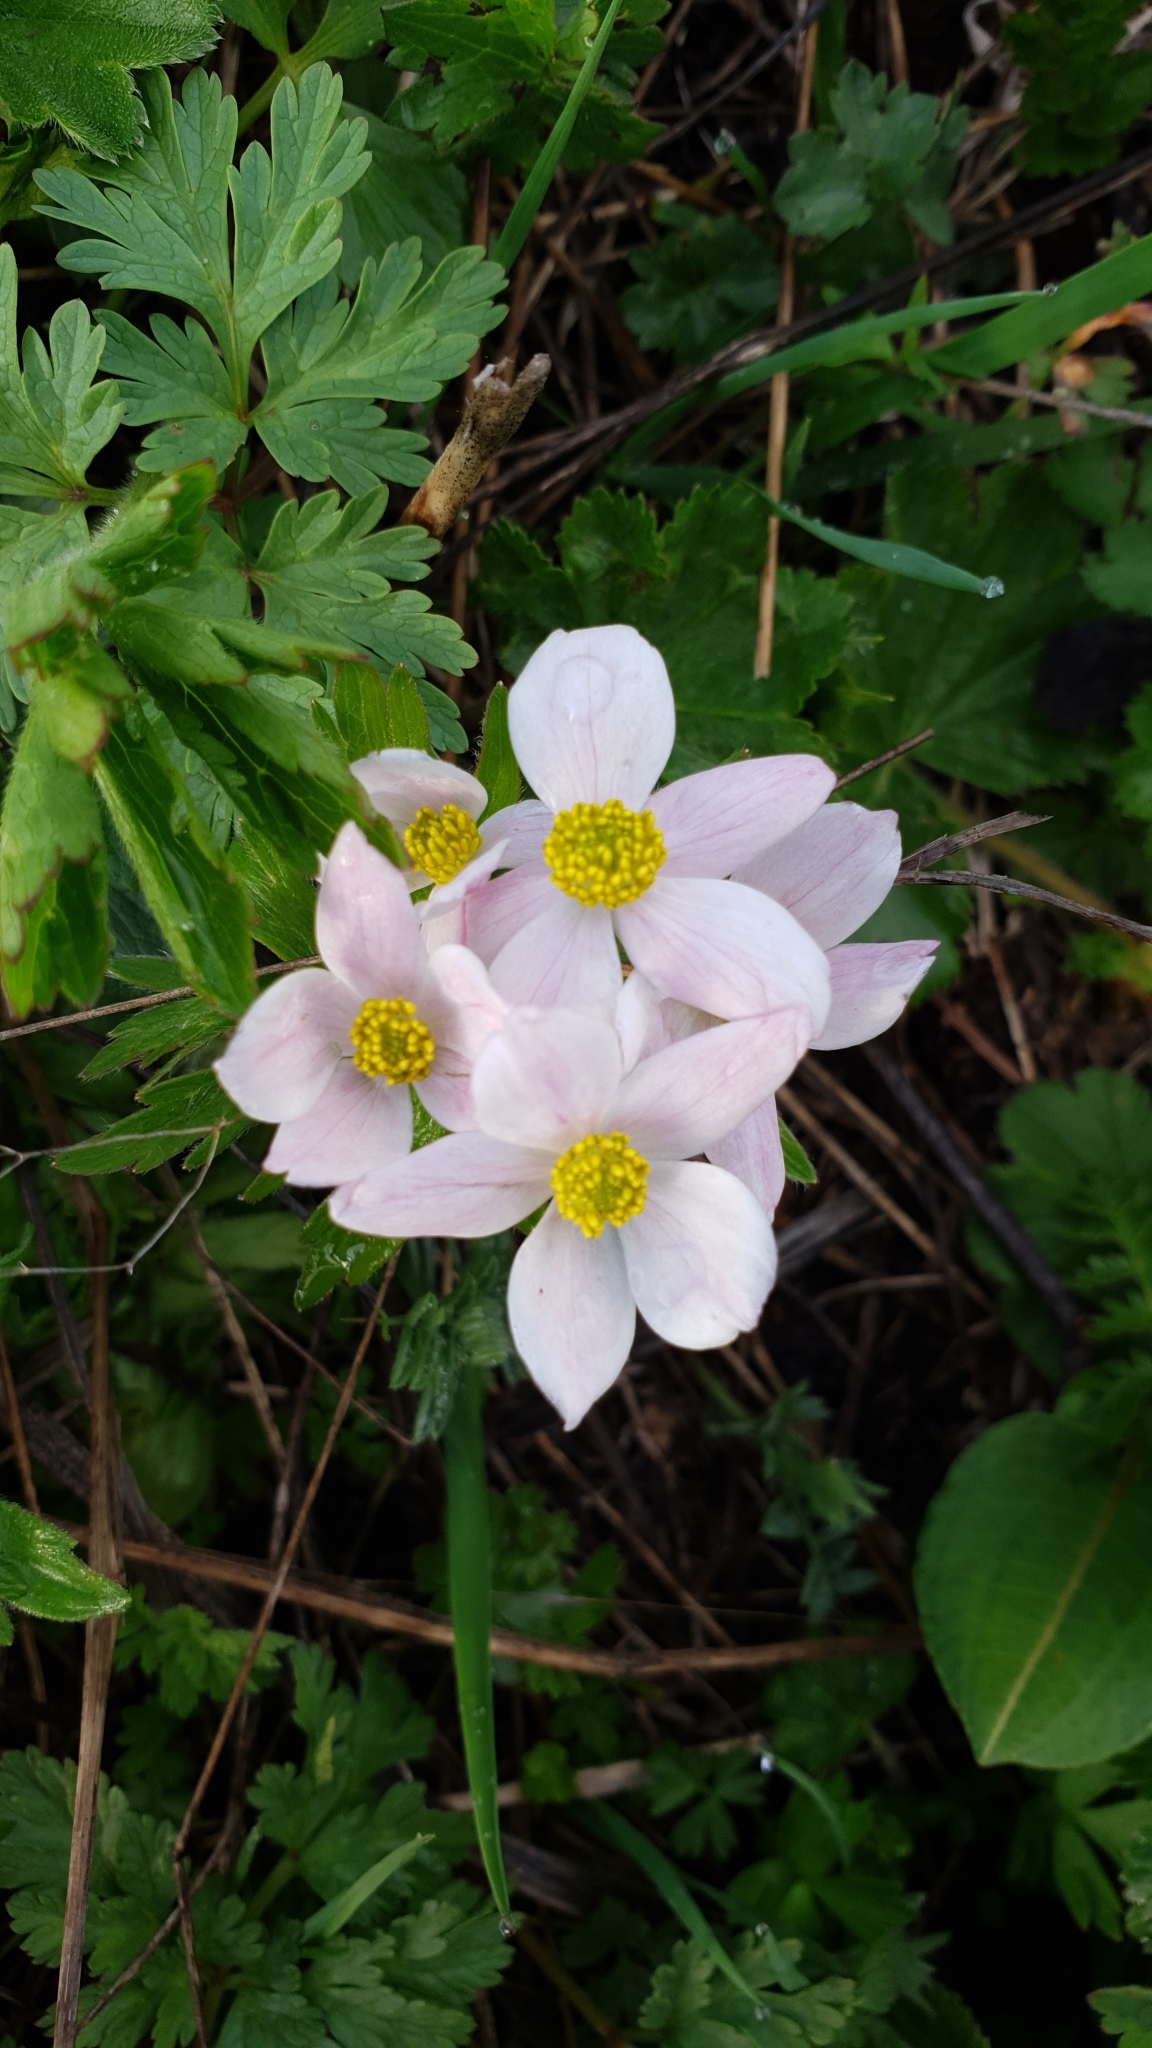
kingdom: Plantae
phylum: Tracheophyta
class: Magnoliopsida
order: Ranunculales
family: Ranunculaceae
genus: Anemonastrum
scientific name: Anemonastrum narcissiflorum
